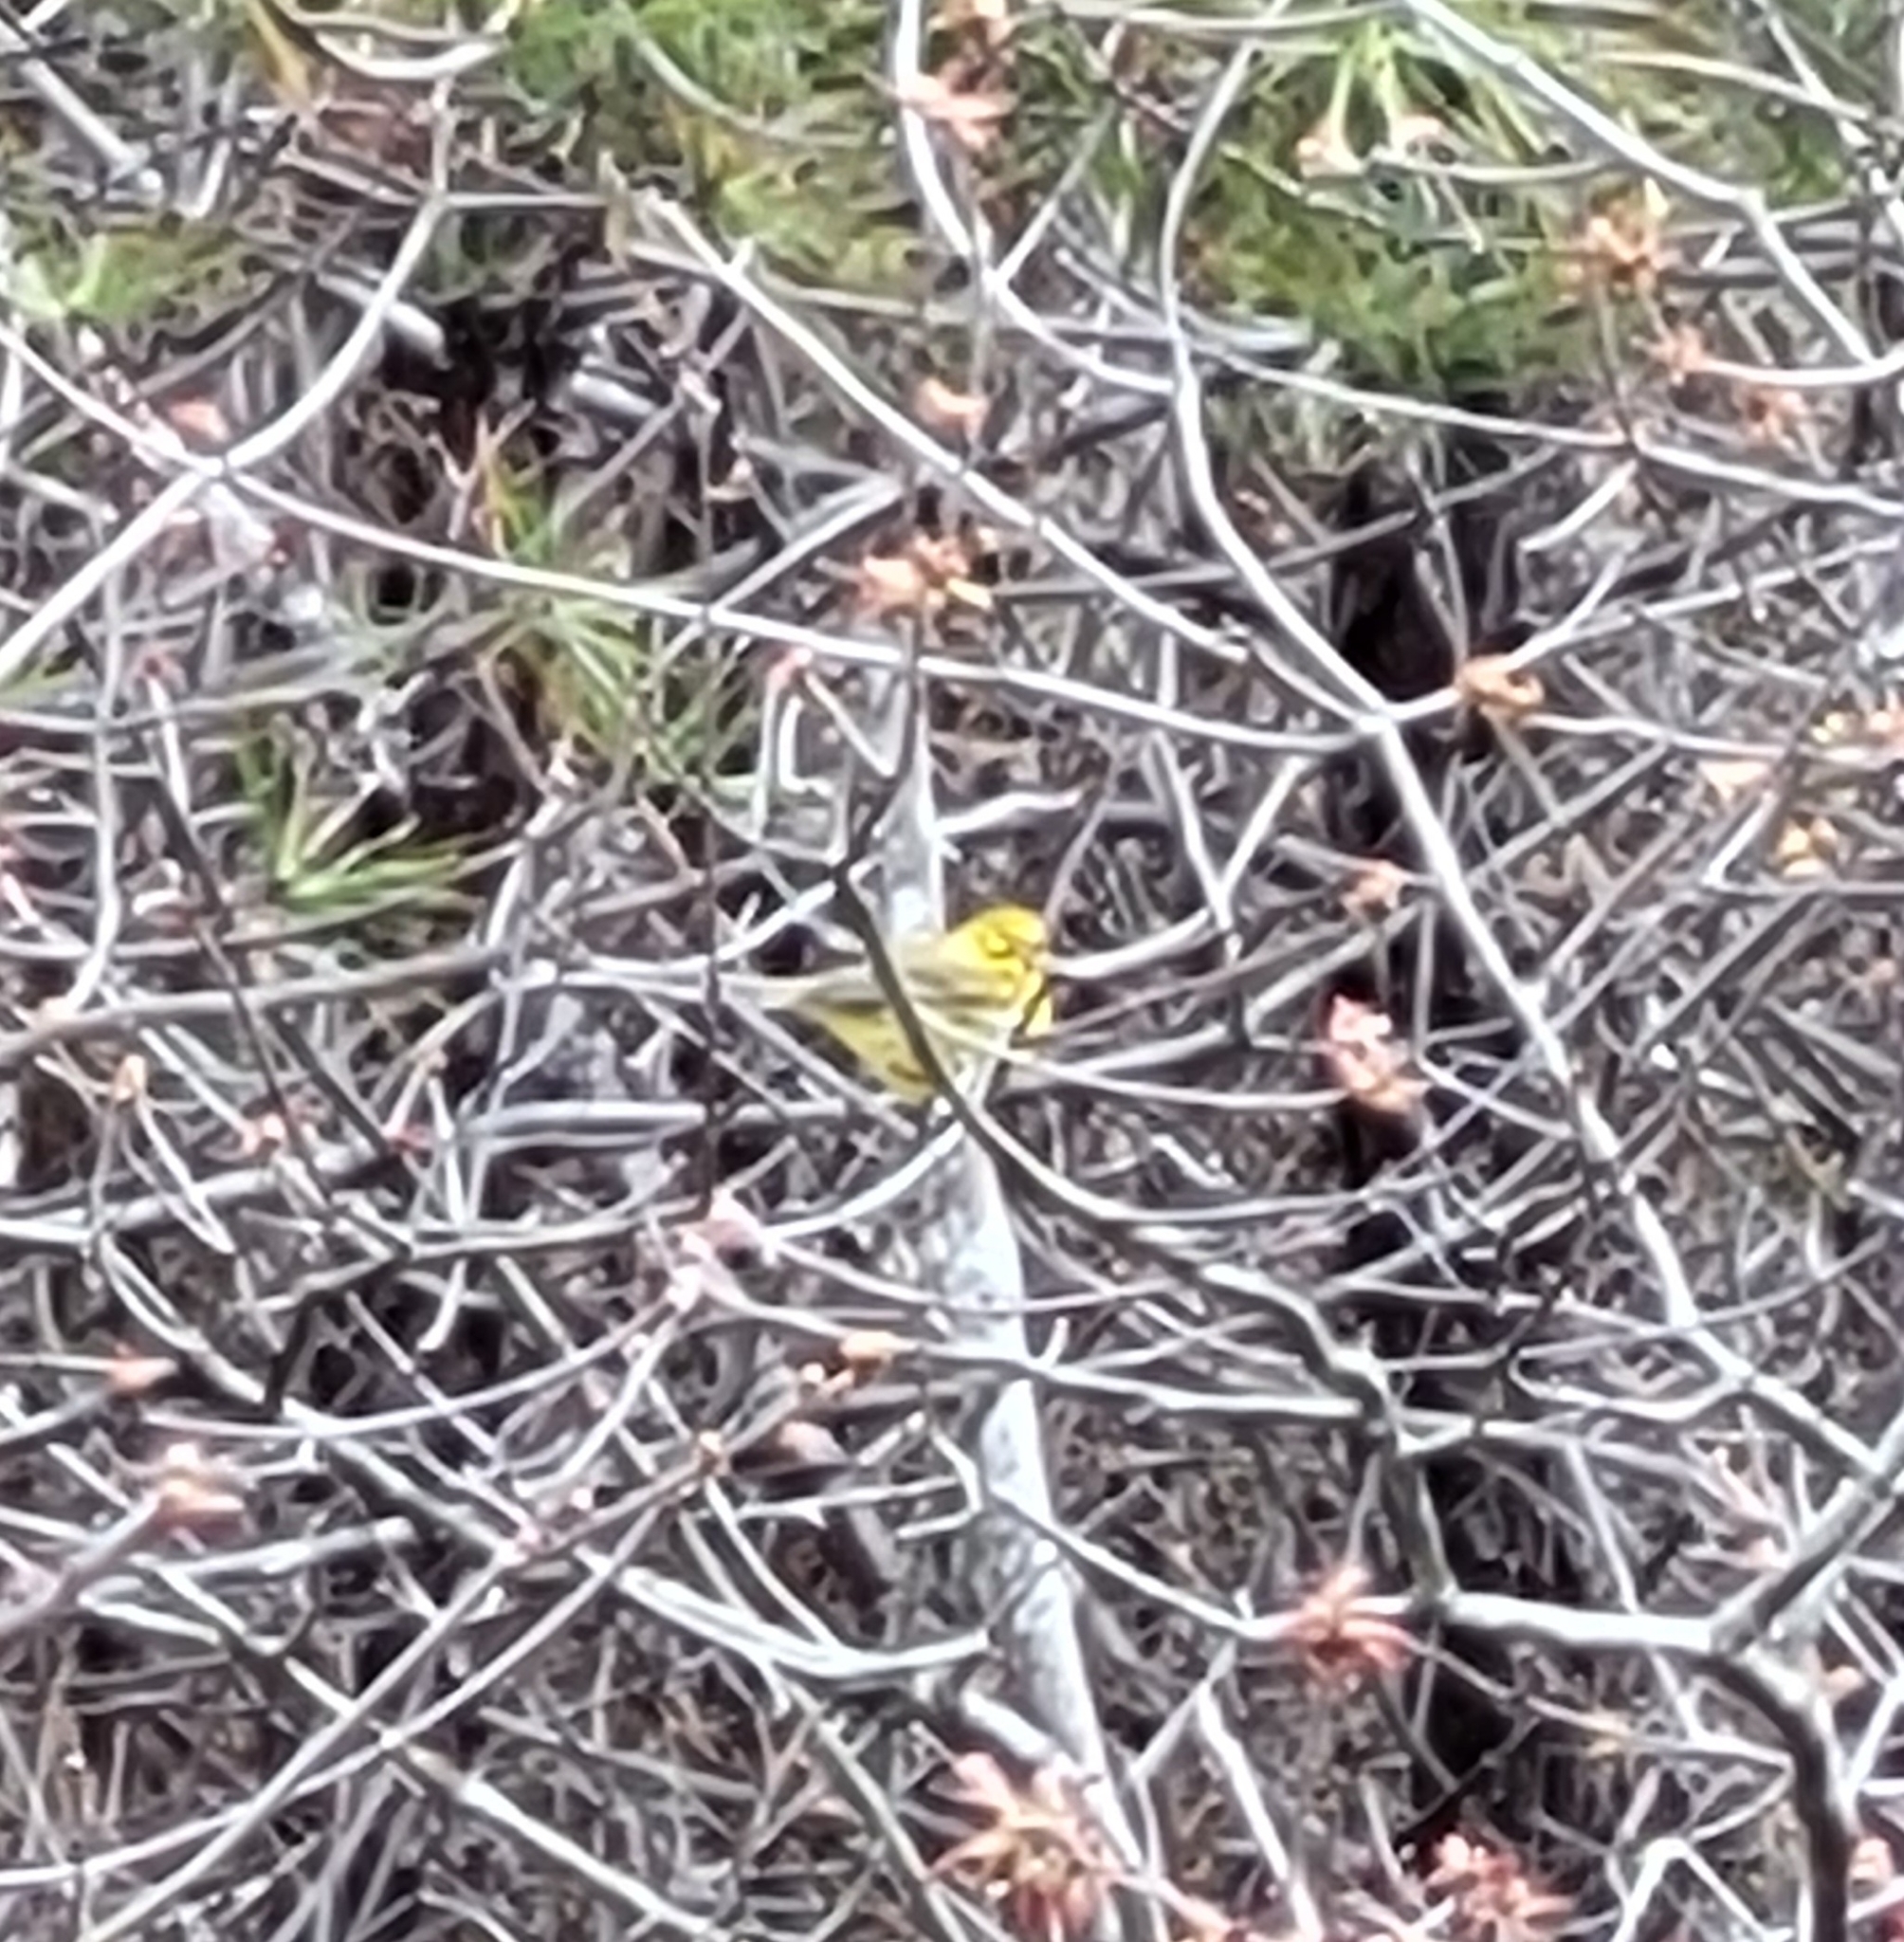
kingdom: Animalia
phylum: Chordata
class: Aves
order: Passeriformes
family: Parulidae
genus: Setophaga
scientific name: Setophaga discolor
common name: Prairie warbler
